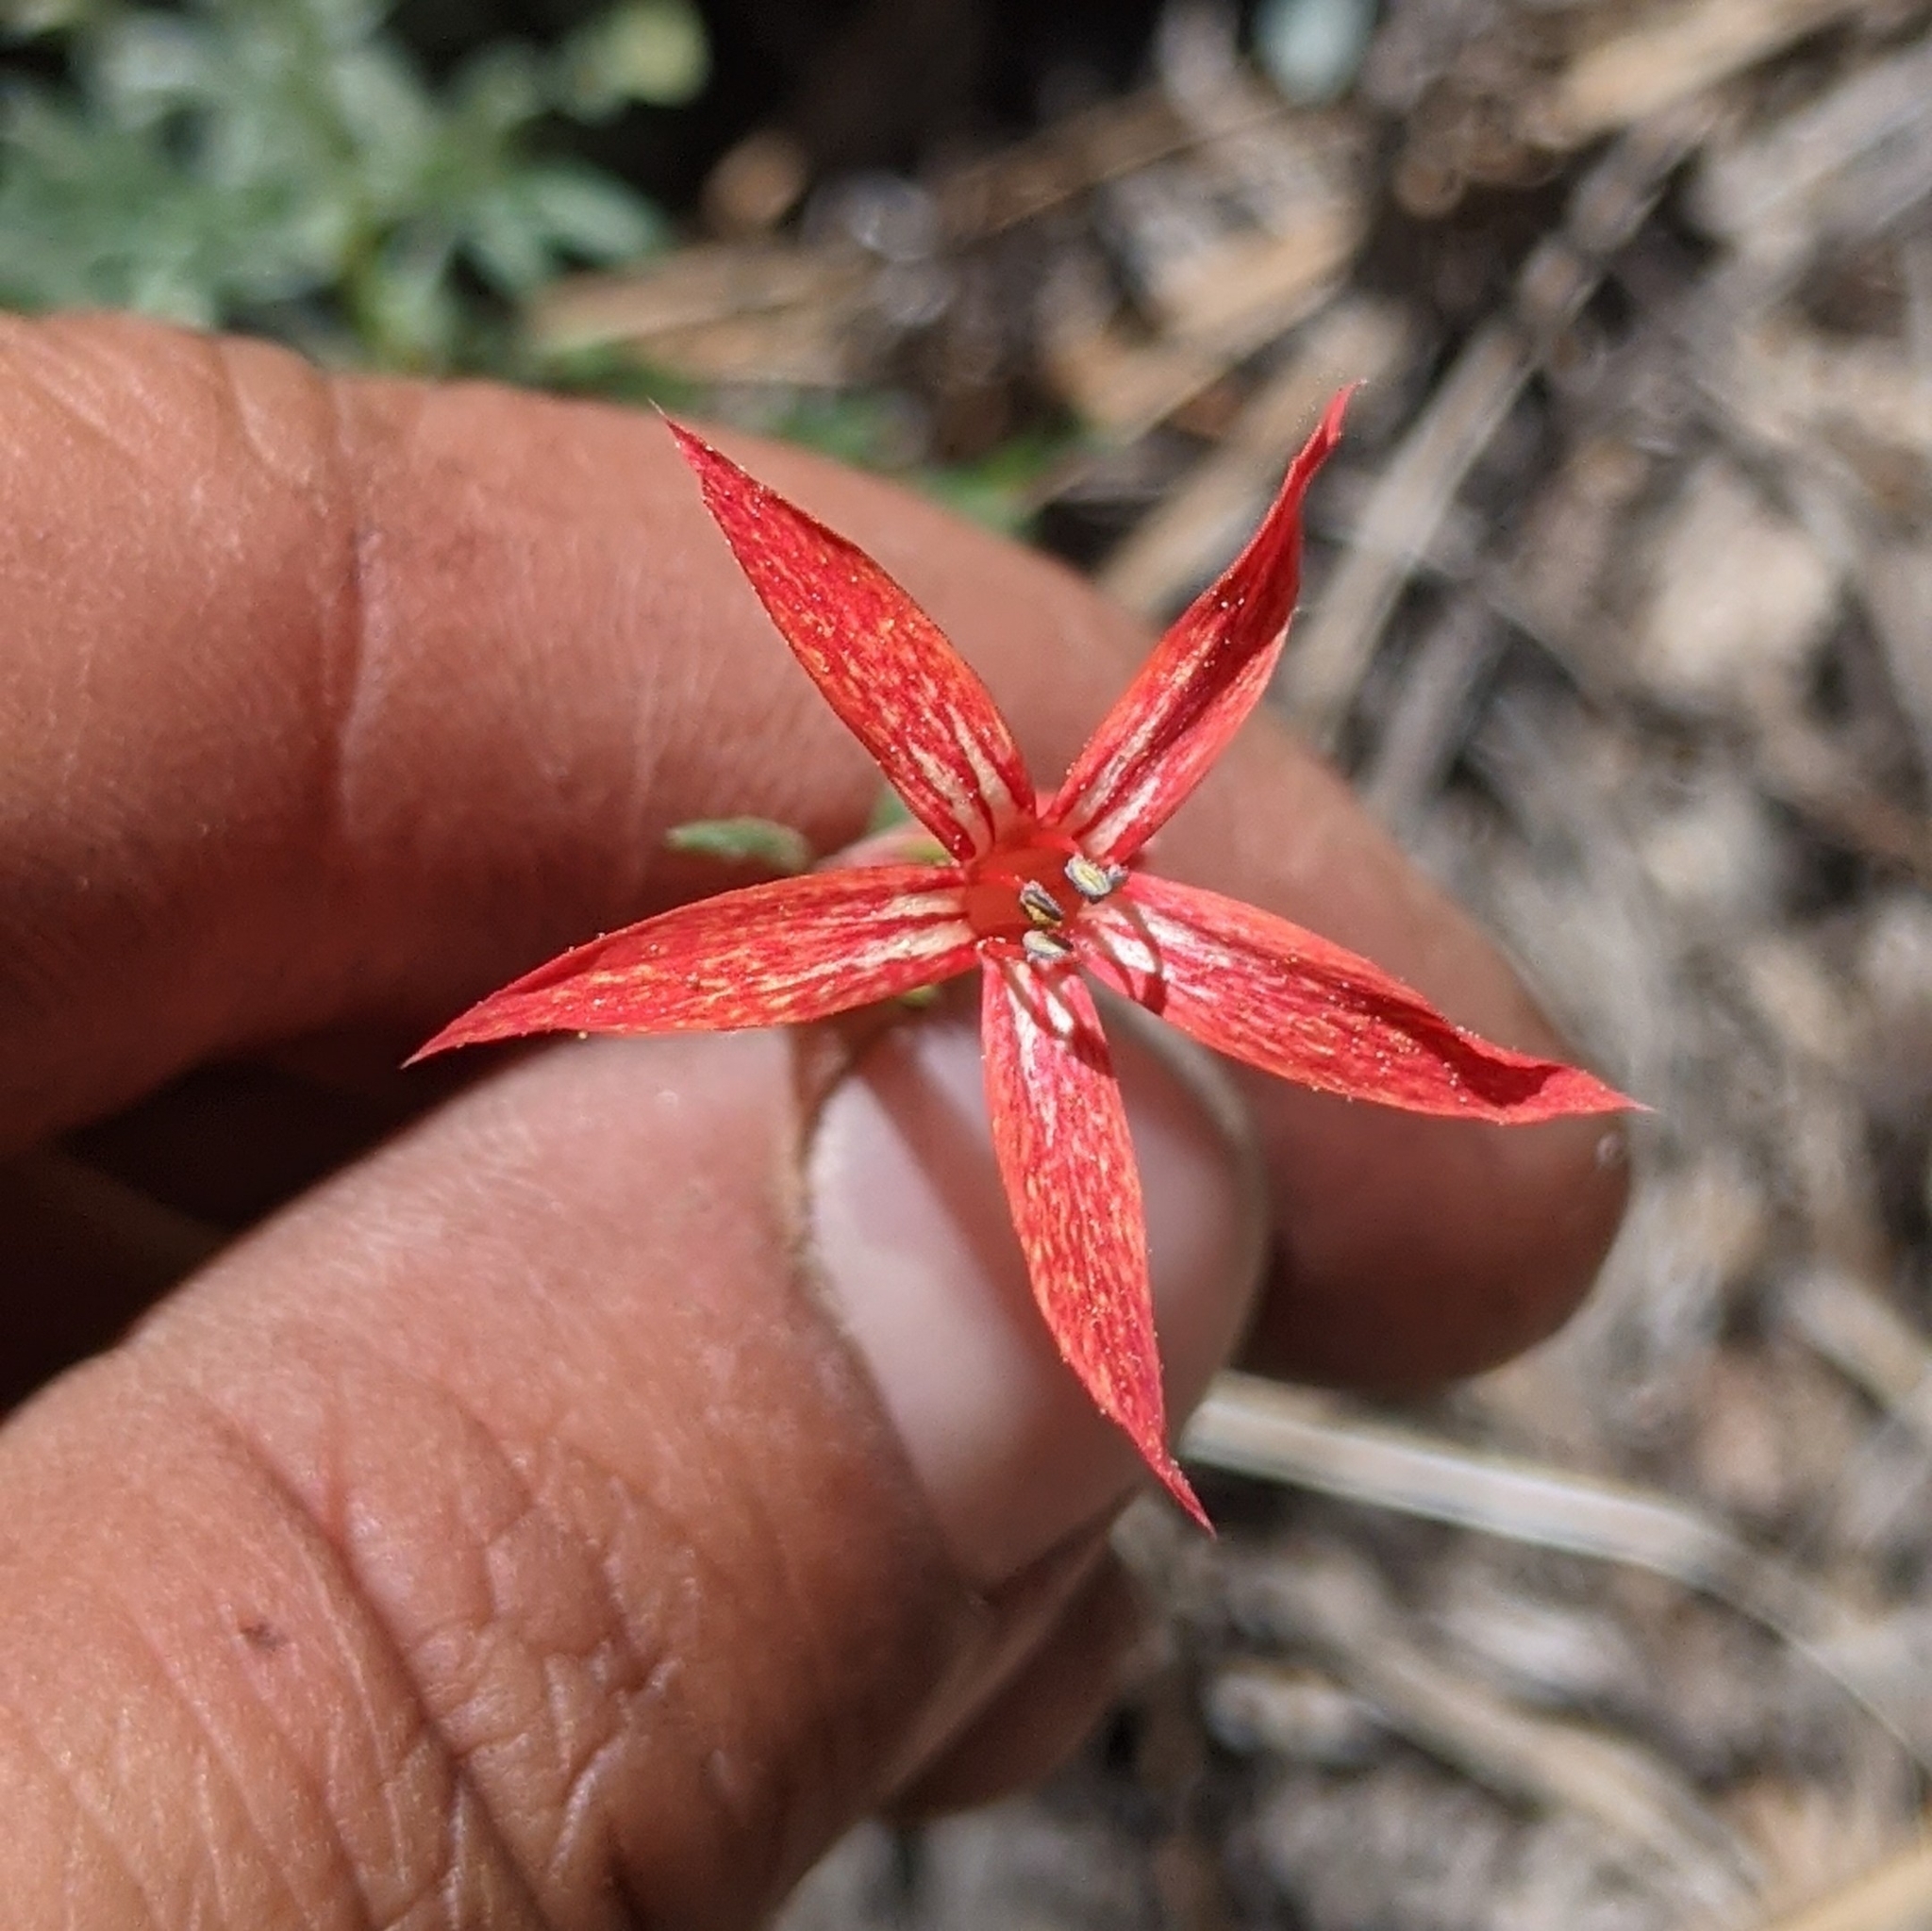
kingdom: Plantae
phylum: Tracheophyta
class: Magnoliopsida
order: Ericales
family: Polemoniaceae
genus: Ipomopsis
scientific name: Ipomopsis aggregata
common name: Scarlet gilia
